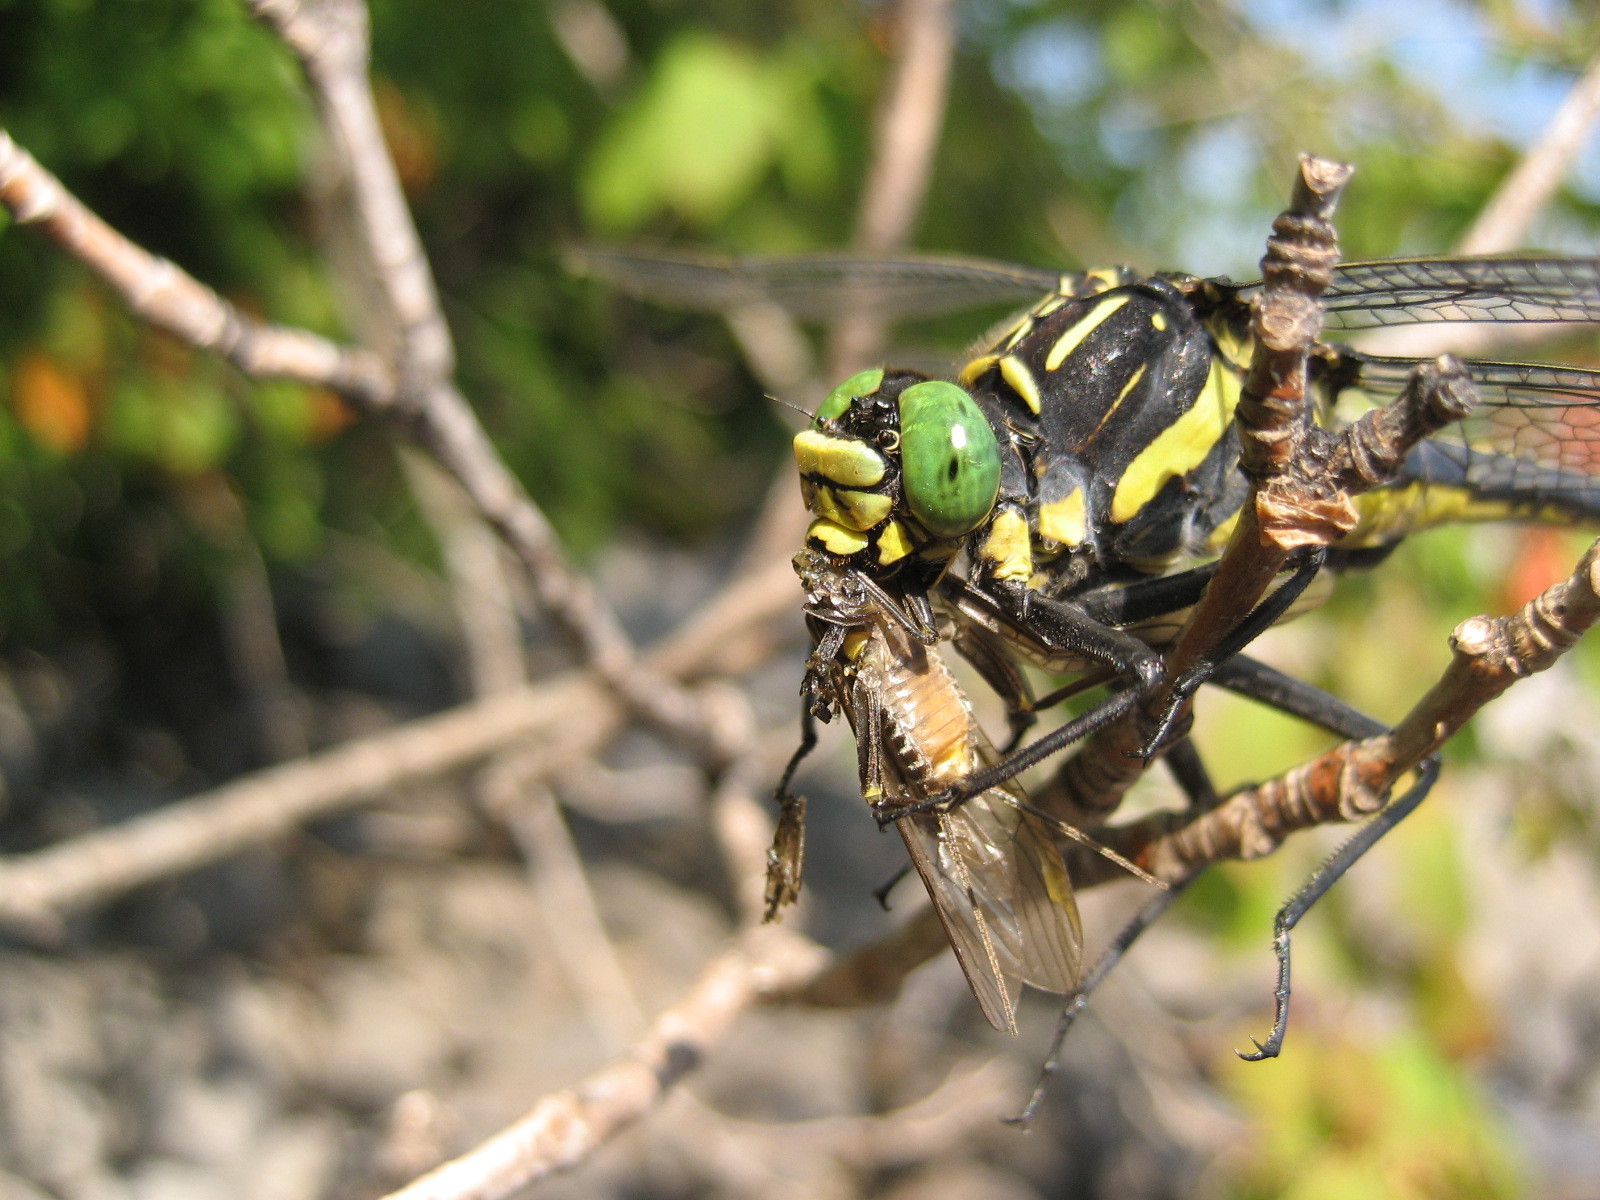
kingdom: Animalia
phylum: Arthropoda
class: Insecta
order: Odonata
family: Gomphidae
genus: Hagenius
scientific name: Hagenius brevistylus
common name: Dragonhunter
